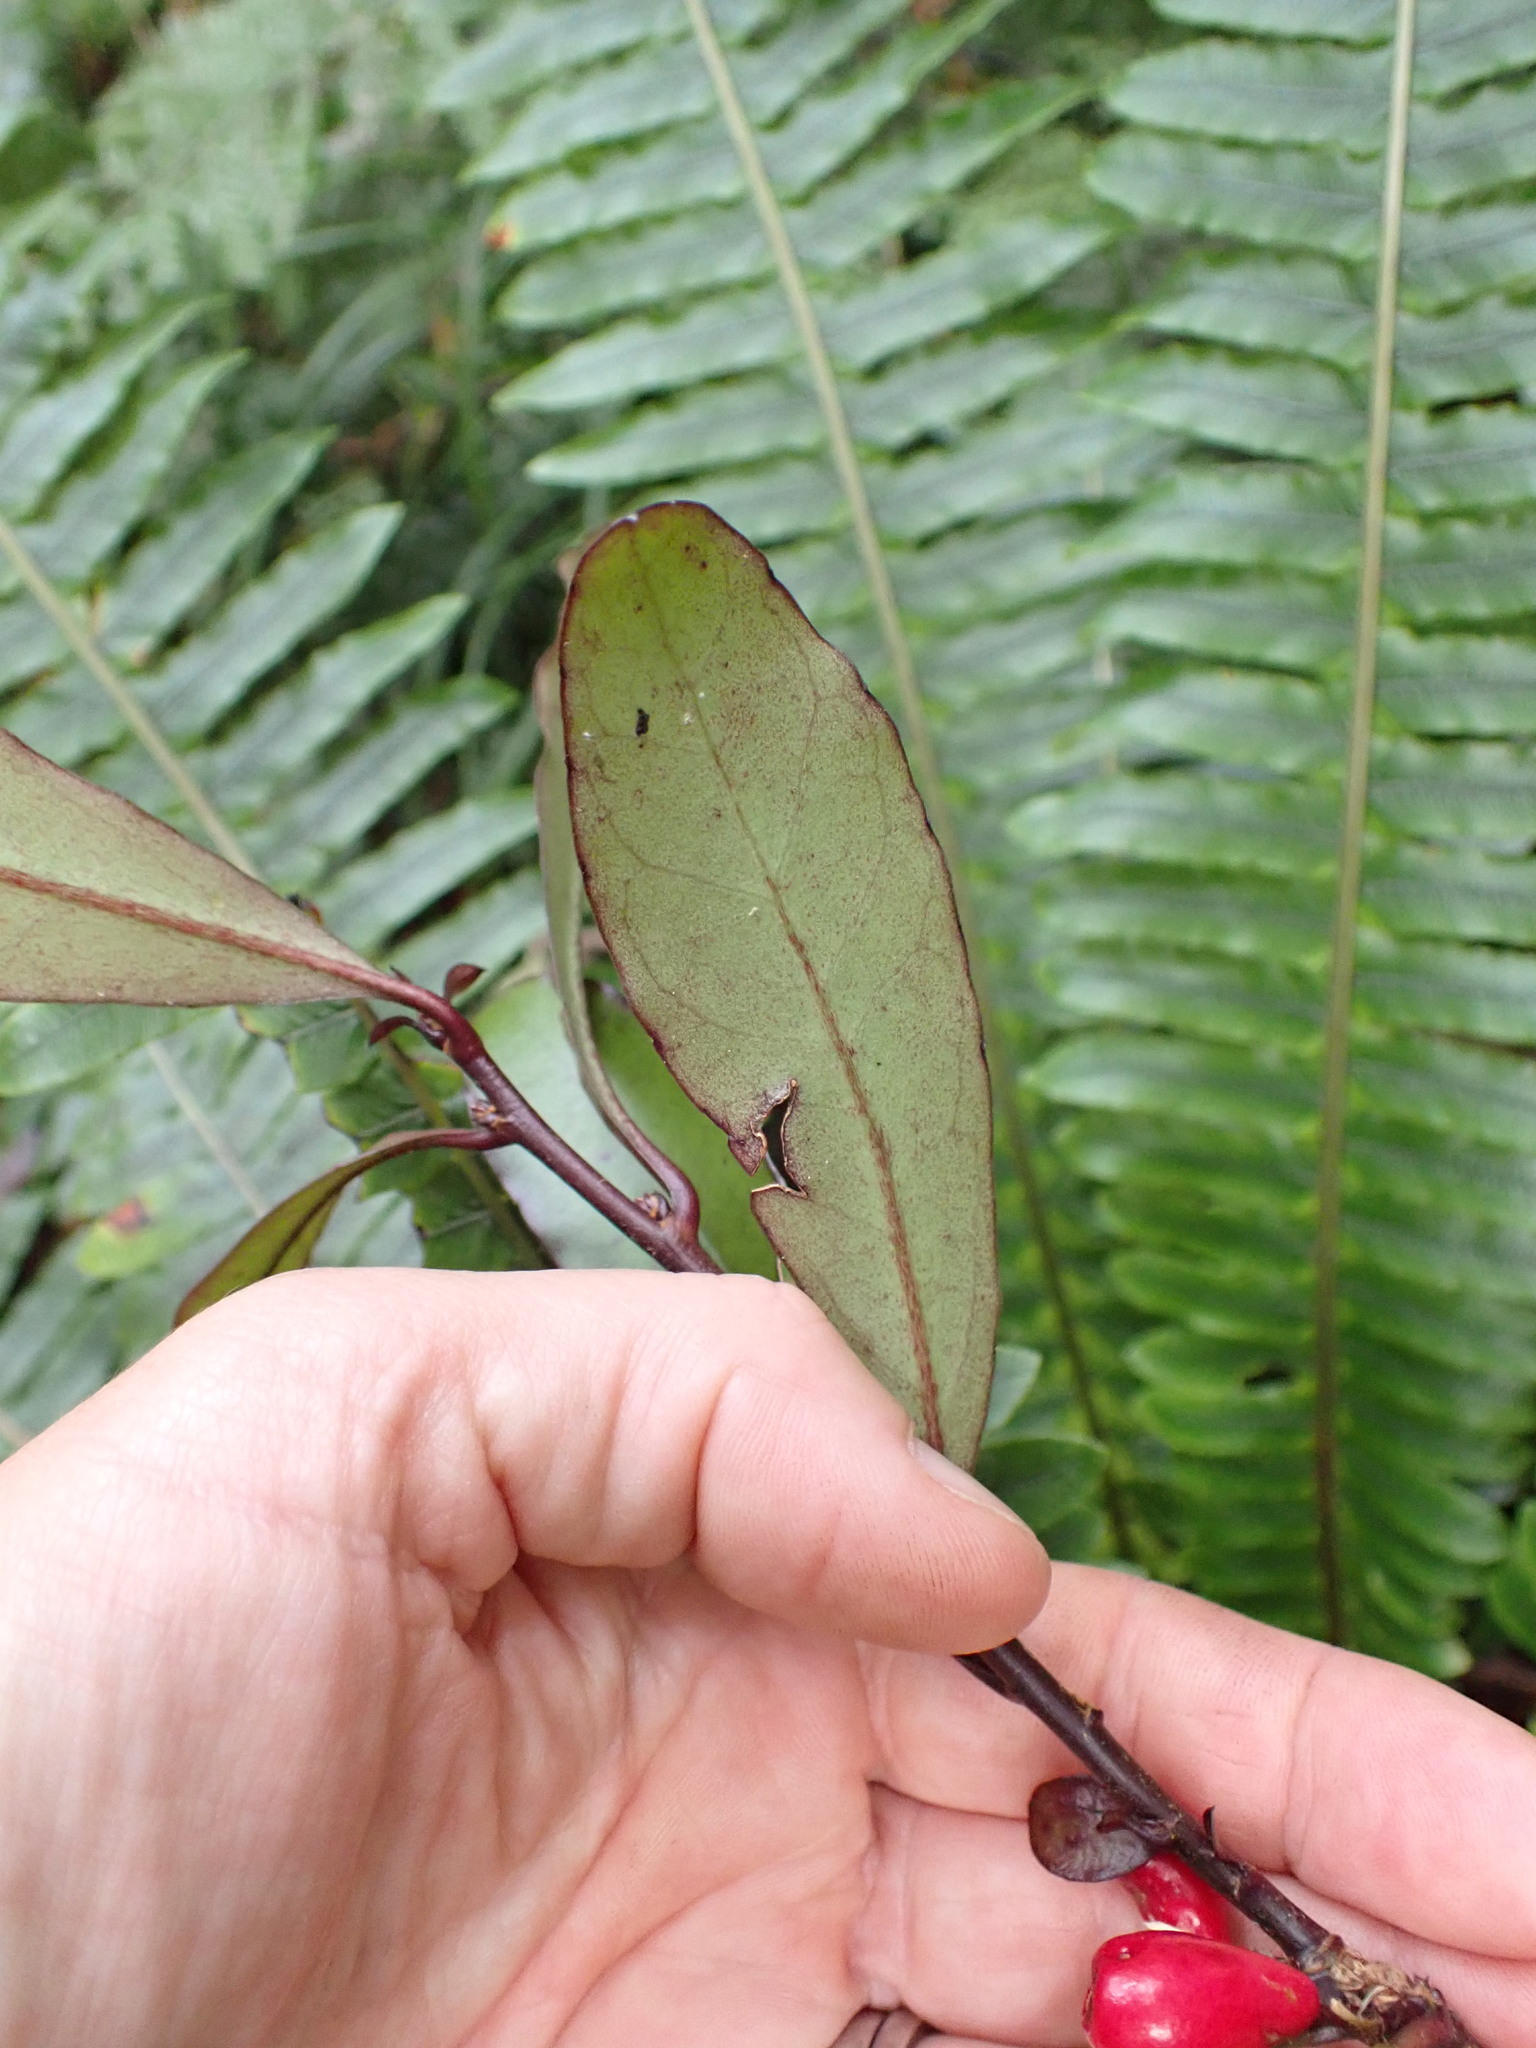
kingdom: Plantae
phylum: Tracheophyta
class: Magnoliopsida
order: Asterales
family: Alseuosmiaceae
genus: Alseuosmia
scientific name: Alseuosmia pusilla
